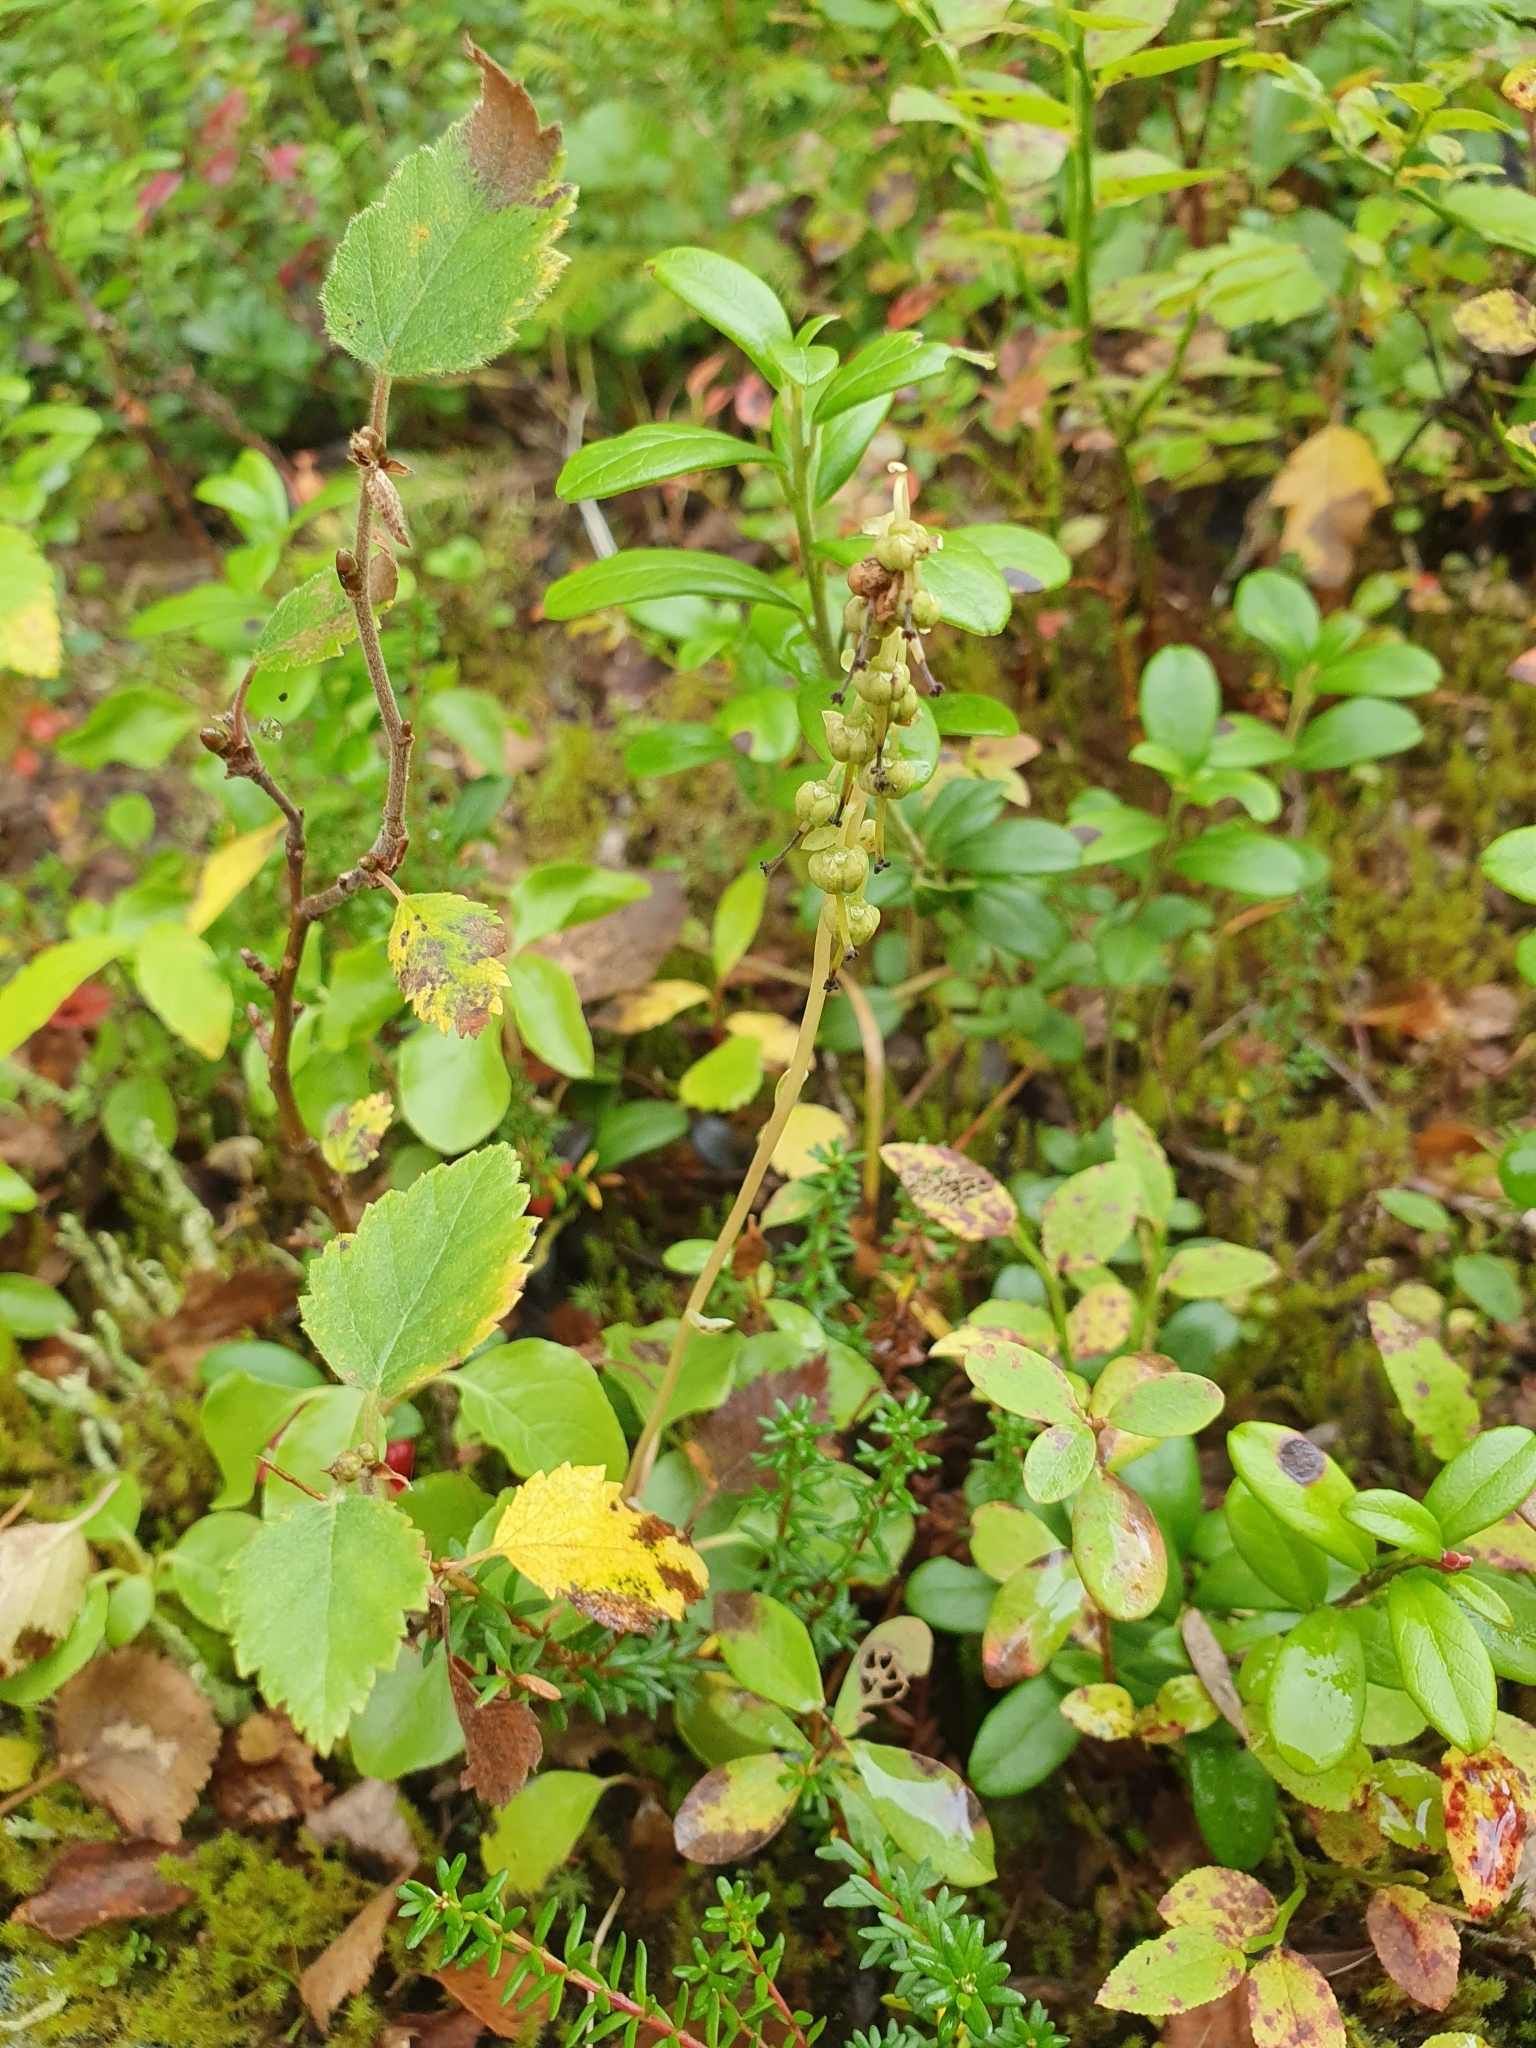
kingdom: Plantae
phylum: Tracheophyta
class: Magnoliopsida
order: Ericales
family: Ericaceae
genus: Orthilia
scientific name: Orthilia secunda
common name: One-sided orthilia
